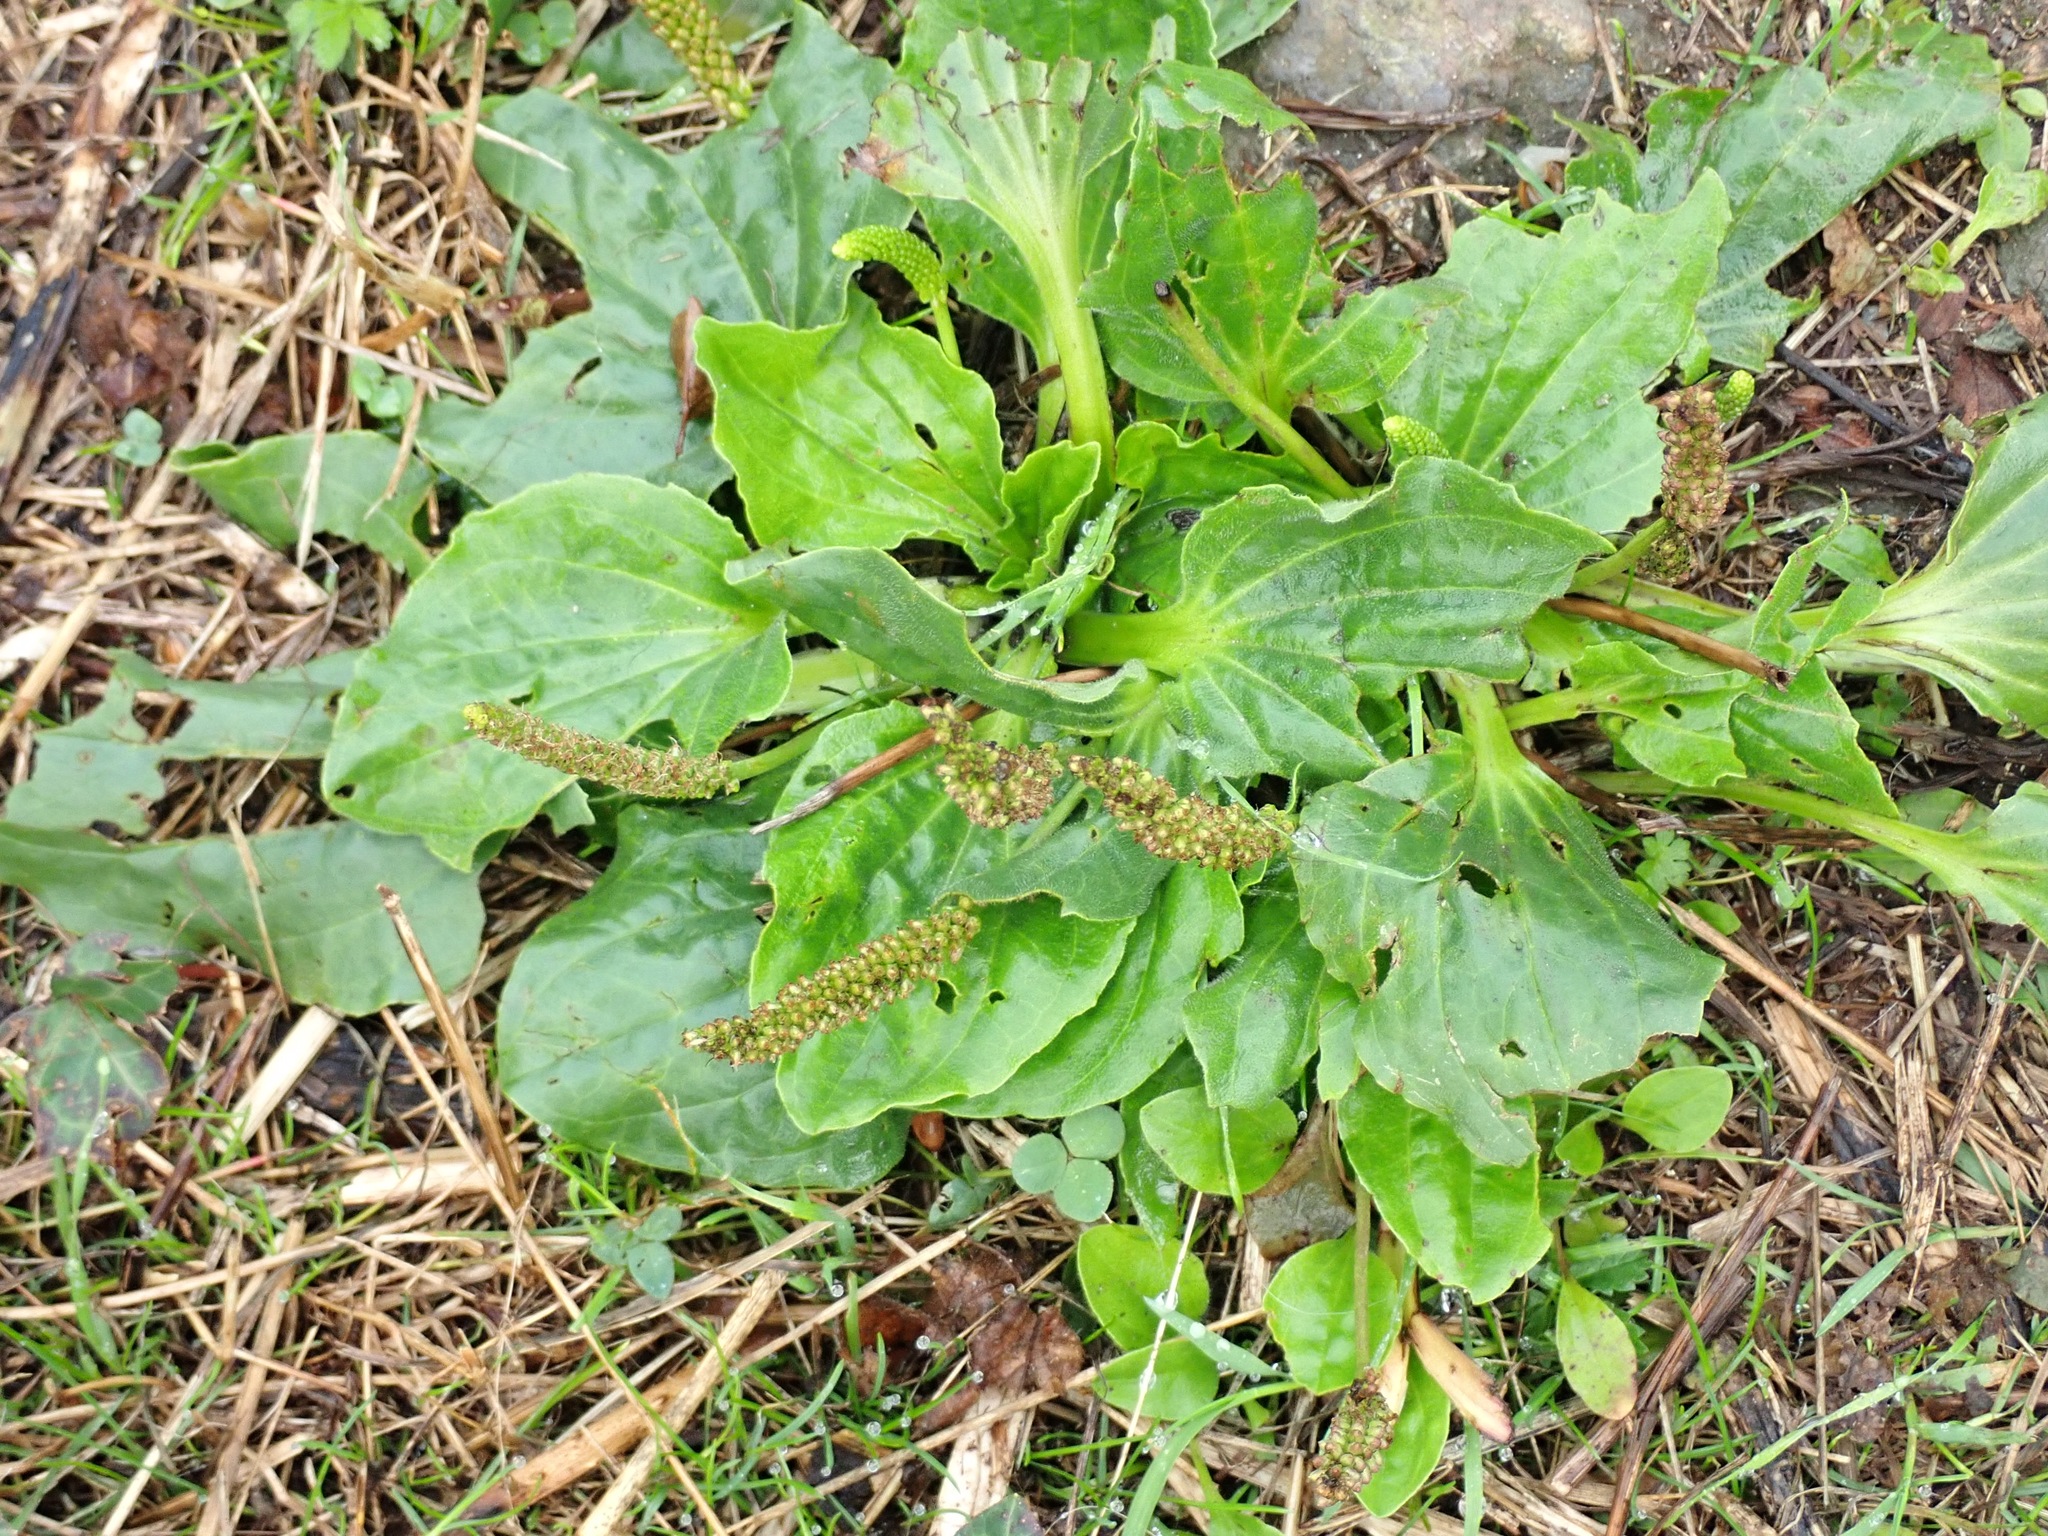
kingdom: Plantae
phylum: Tracheophyta
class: Magnoliopsida
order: Lamiales
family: Plantaginaceae
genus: Plantago
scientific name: Plantago major
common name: Common plantain
